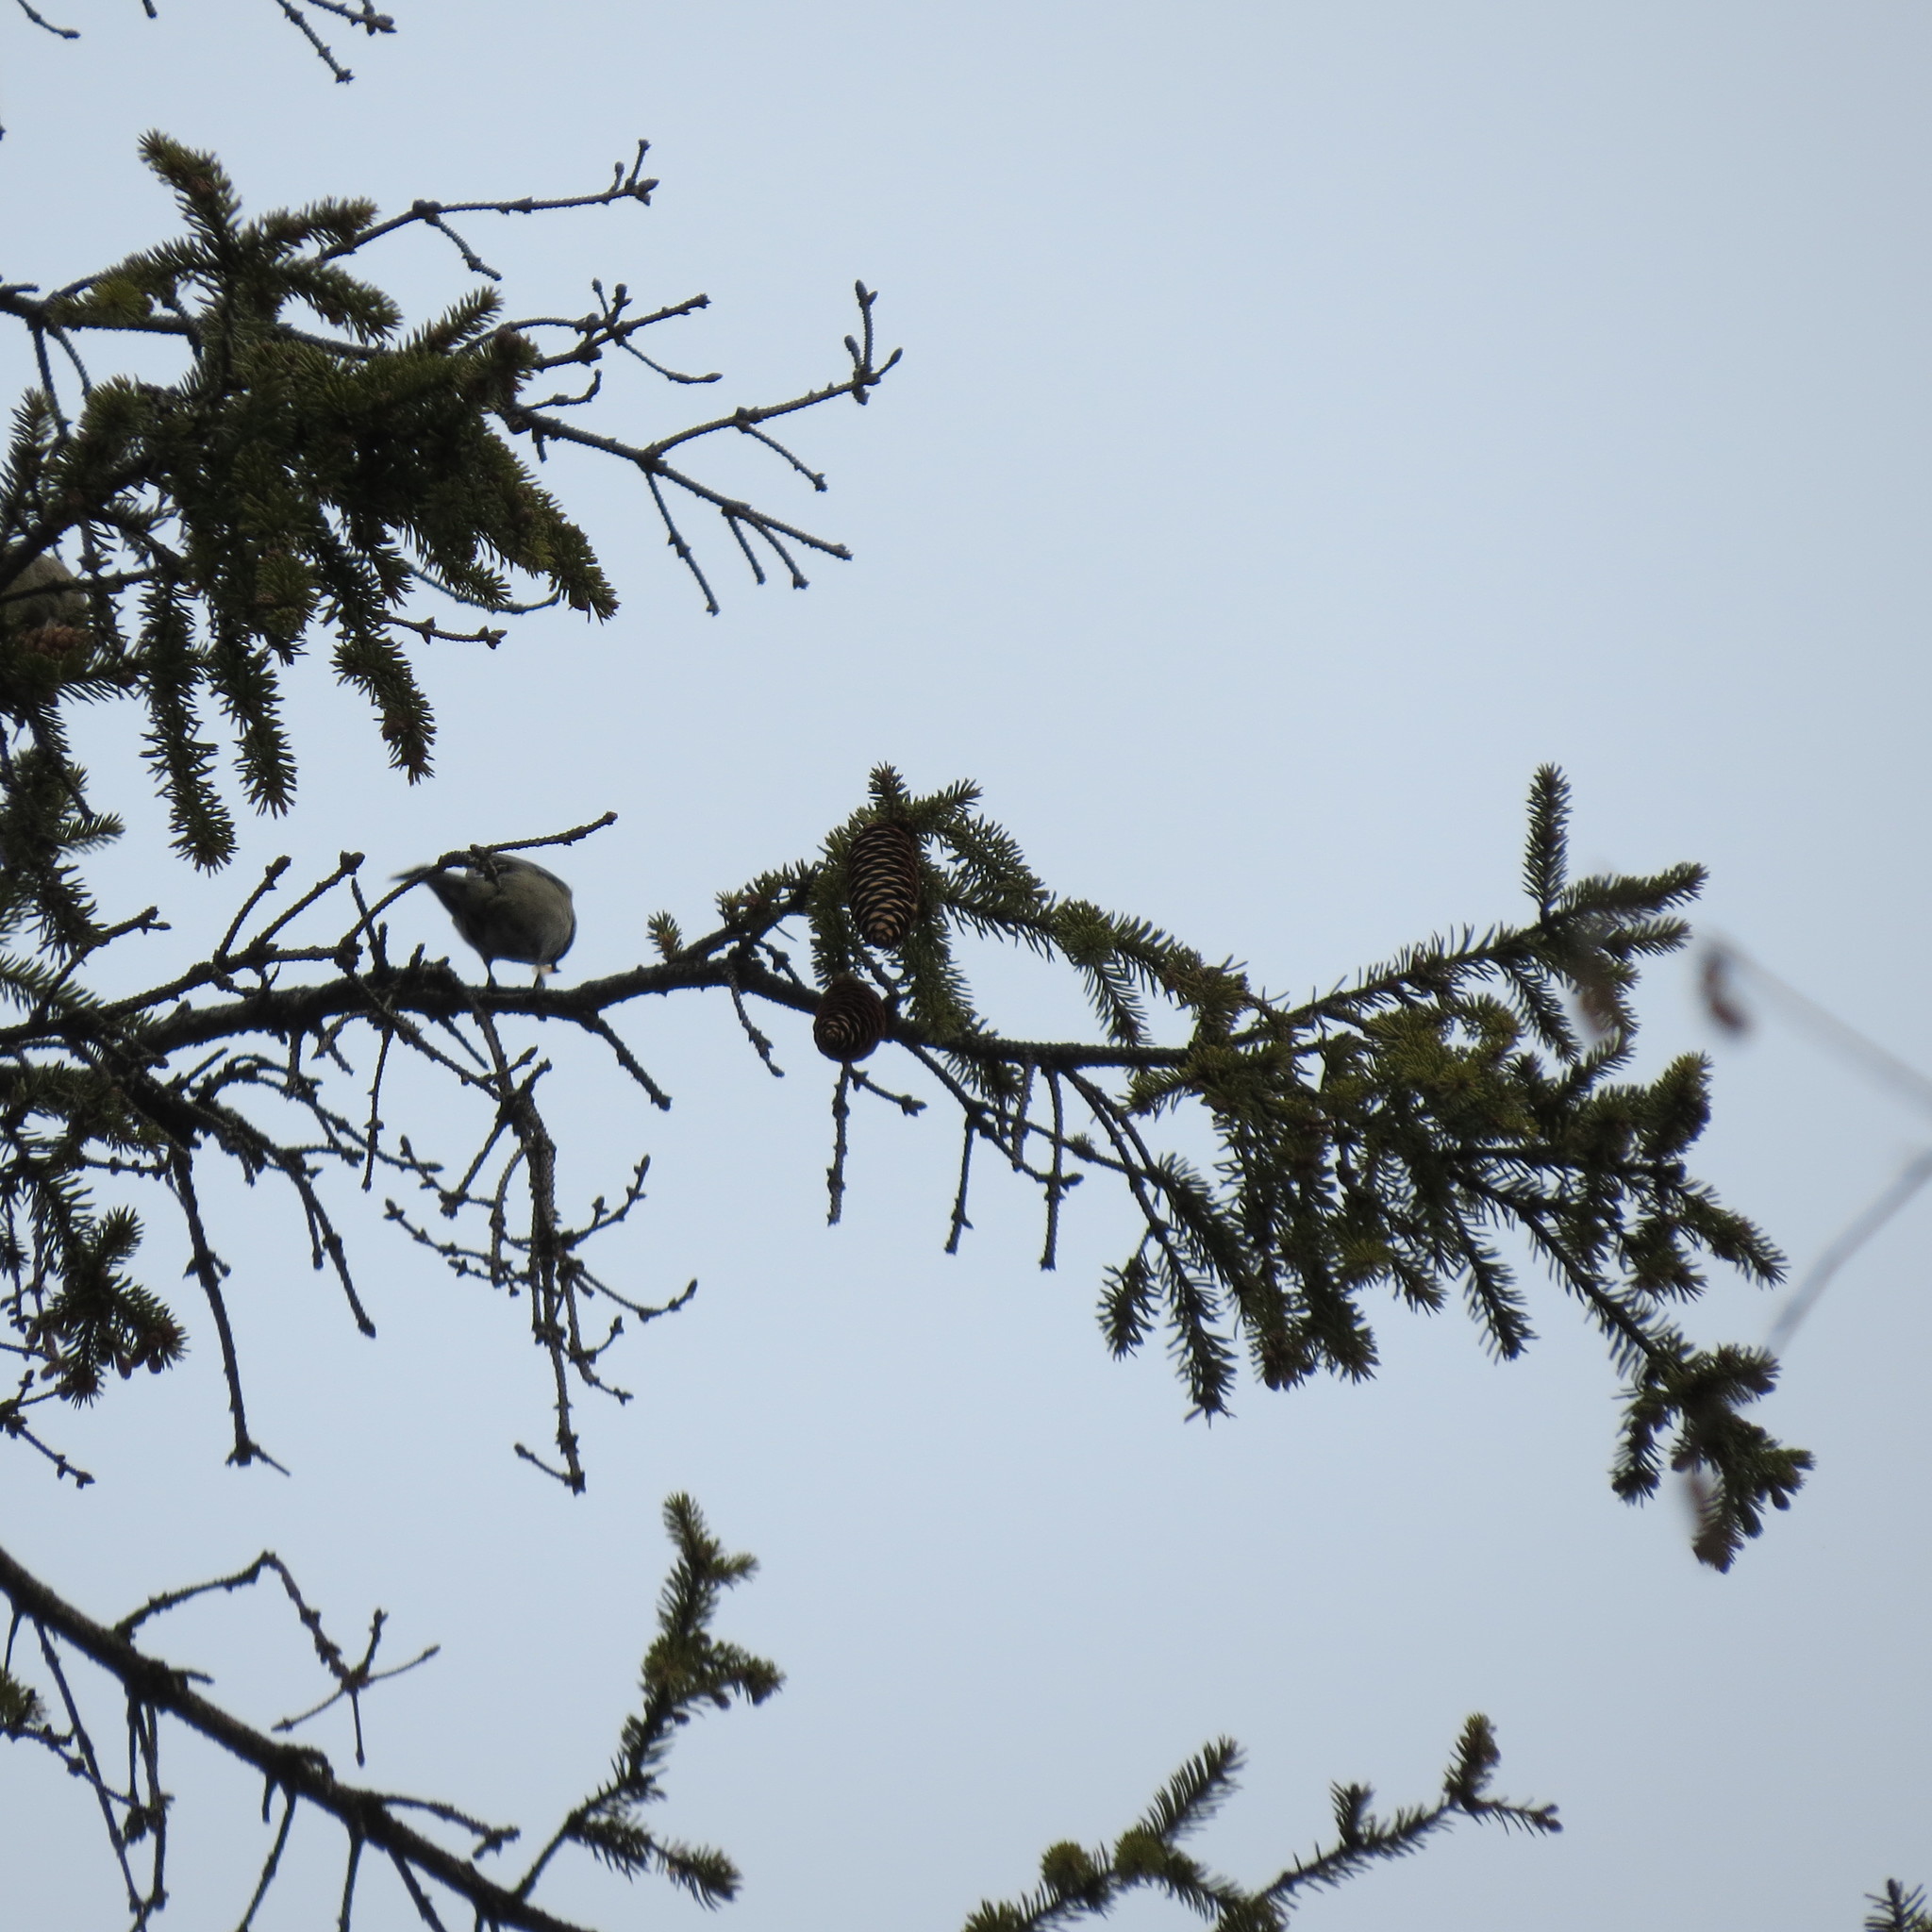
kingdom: Animalia
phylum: Chordata
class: Aves
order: Passeriformes
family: Paridae
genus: Periparus
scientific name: Periparus ater
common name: Coal tit
